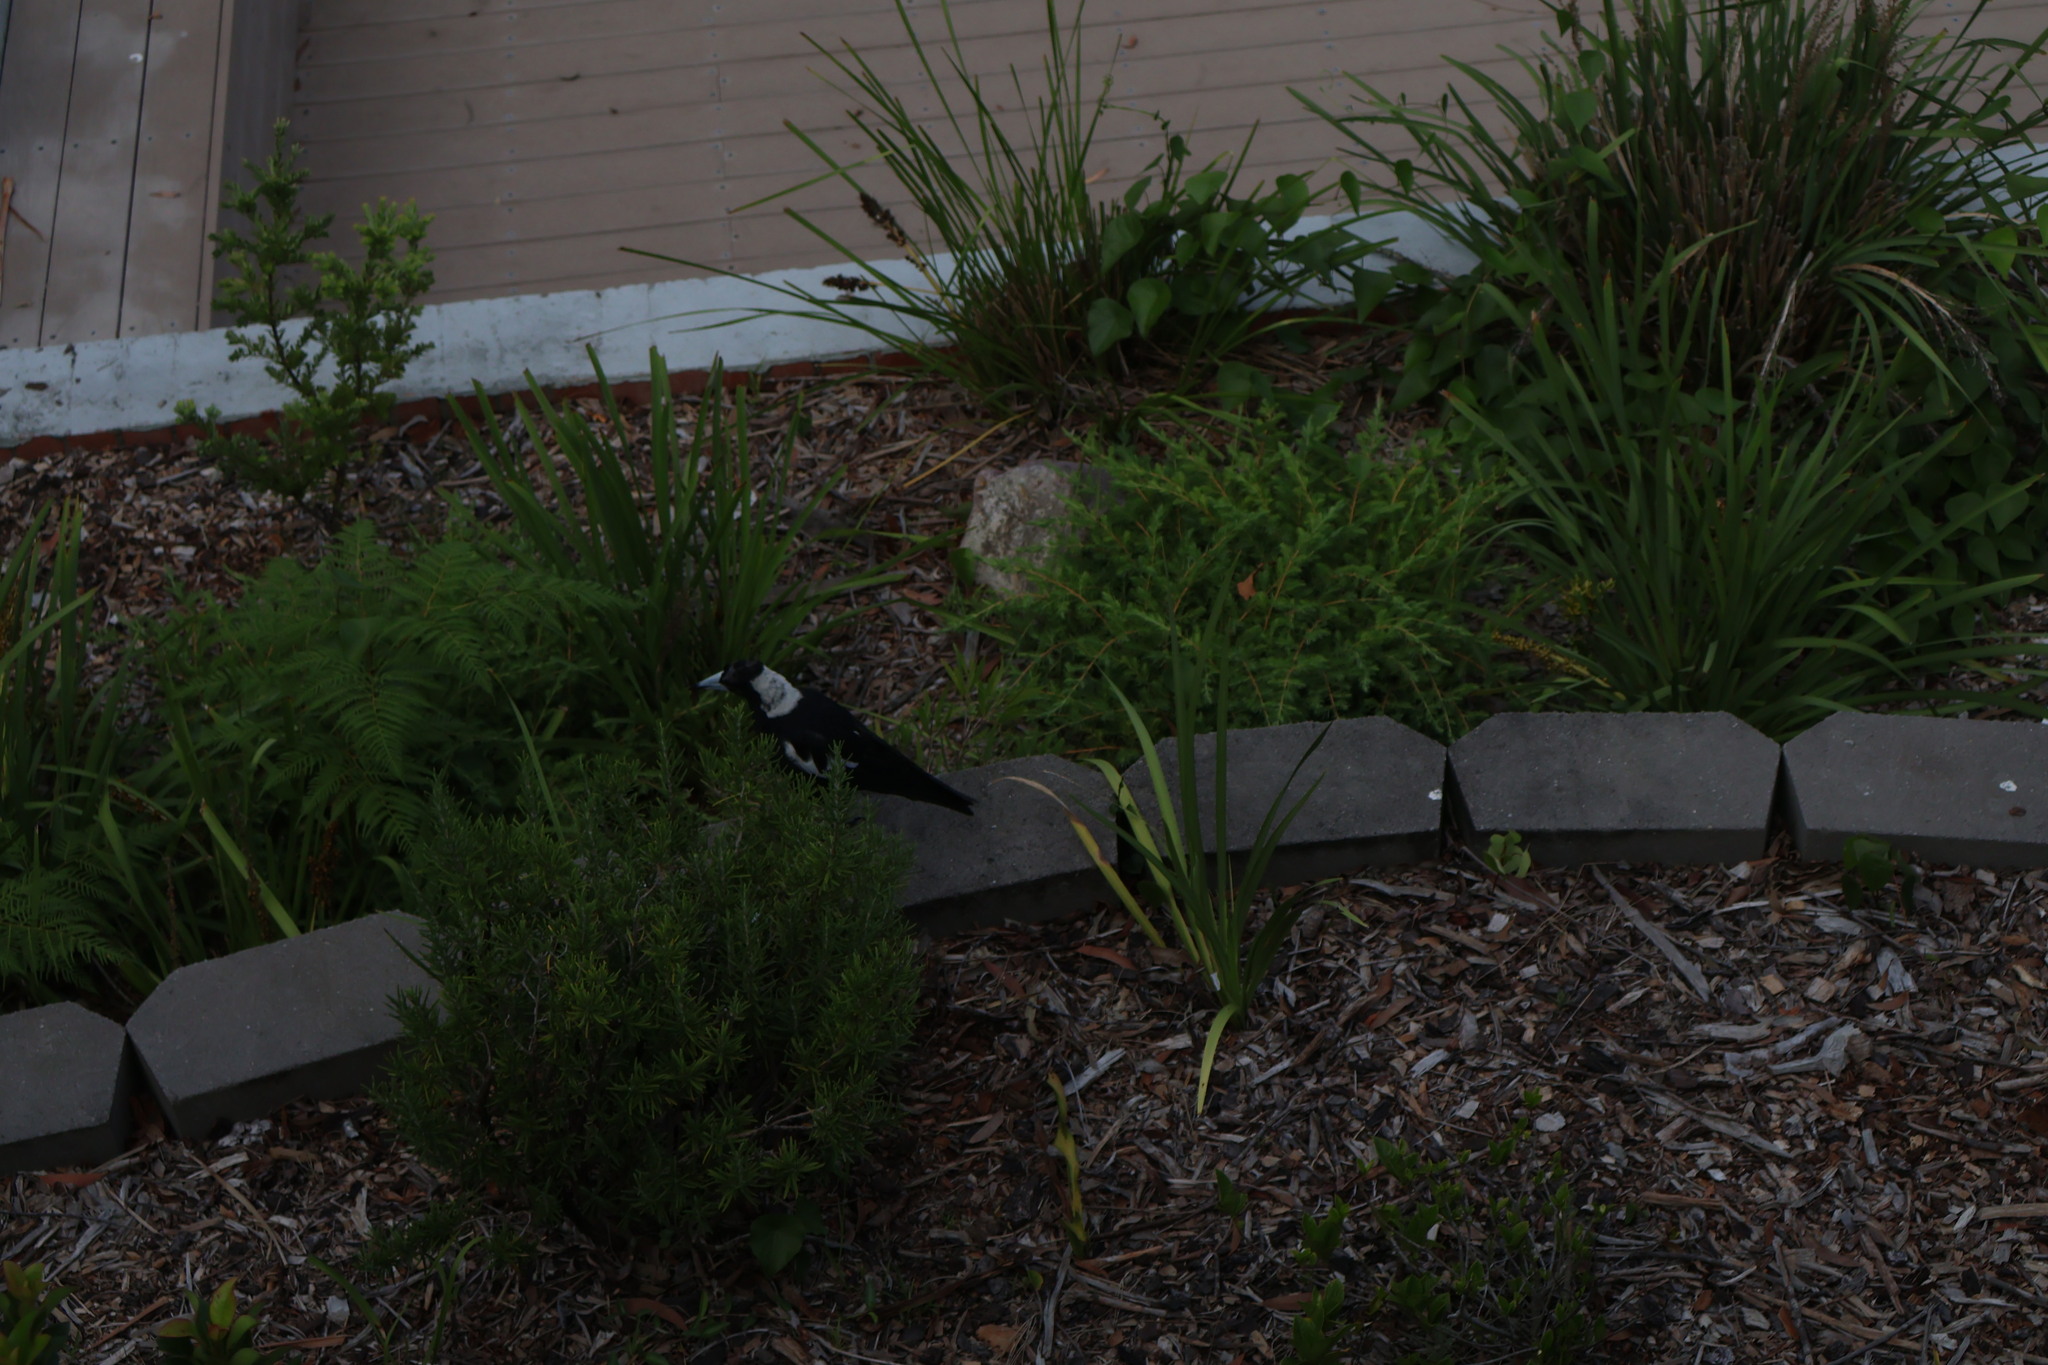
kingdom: Animalia
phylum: Chordata
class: Aves
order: Passeriformes
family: Cracticidae
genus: Gymnorhina
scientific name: Gymnorhina tibicen
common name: Australian magpie
